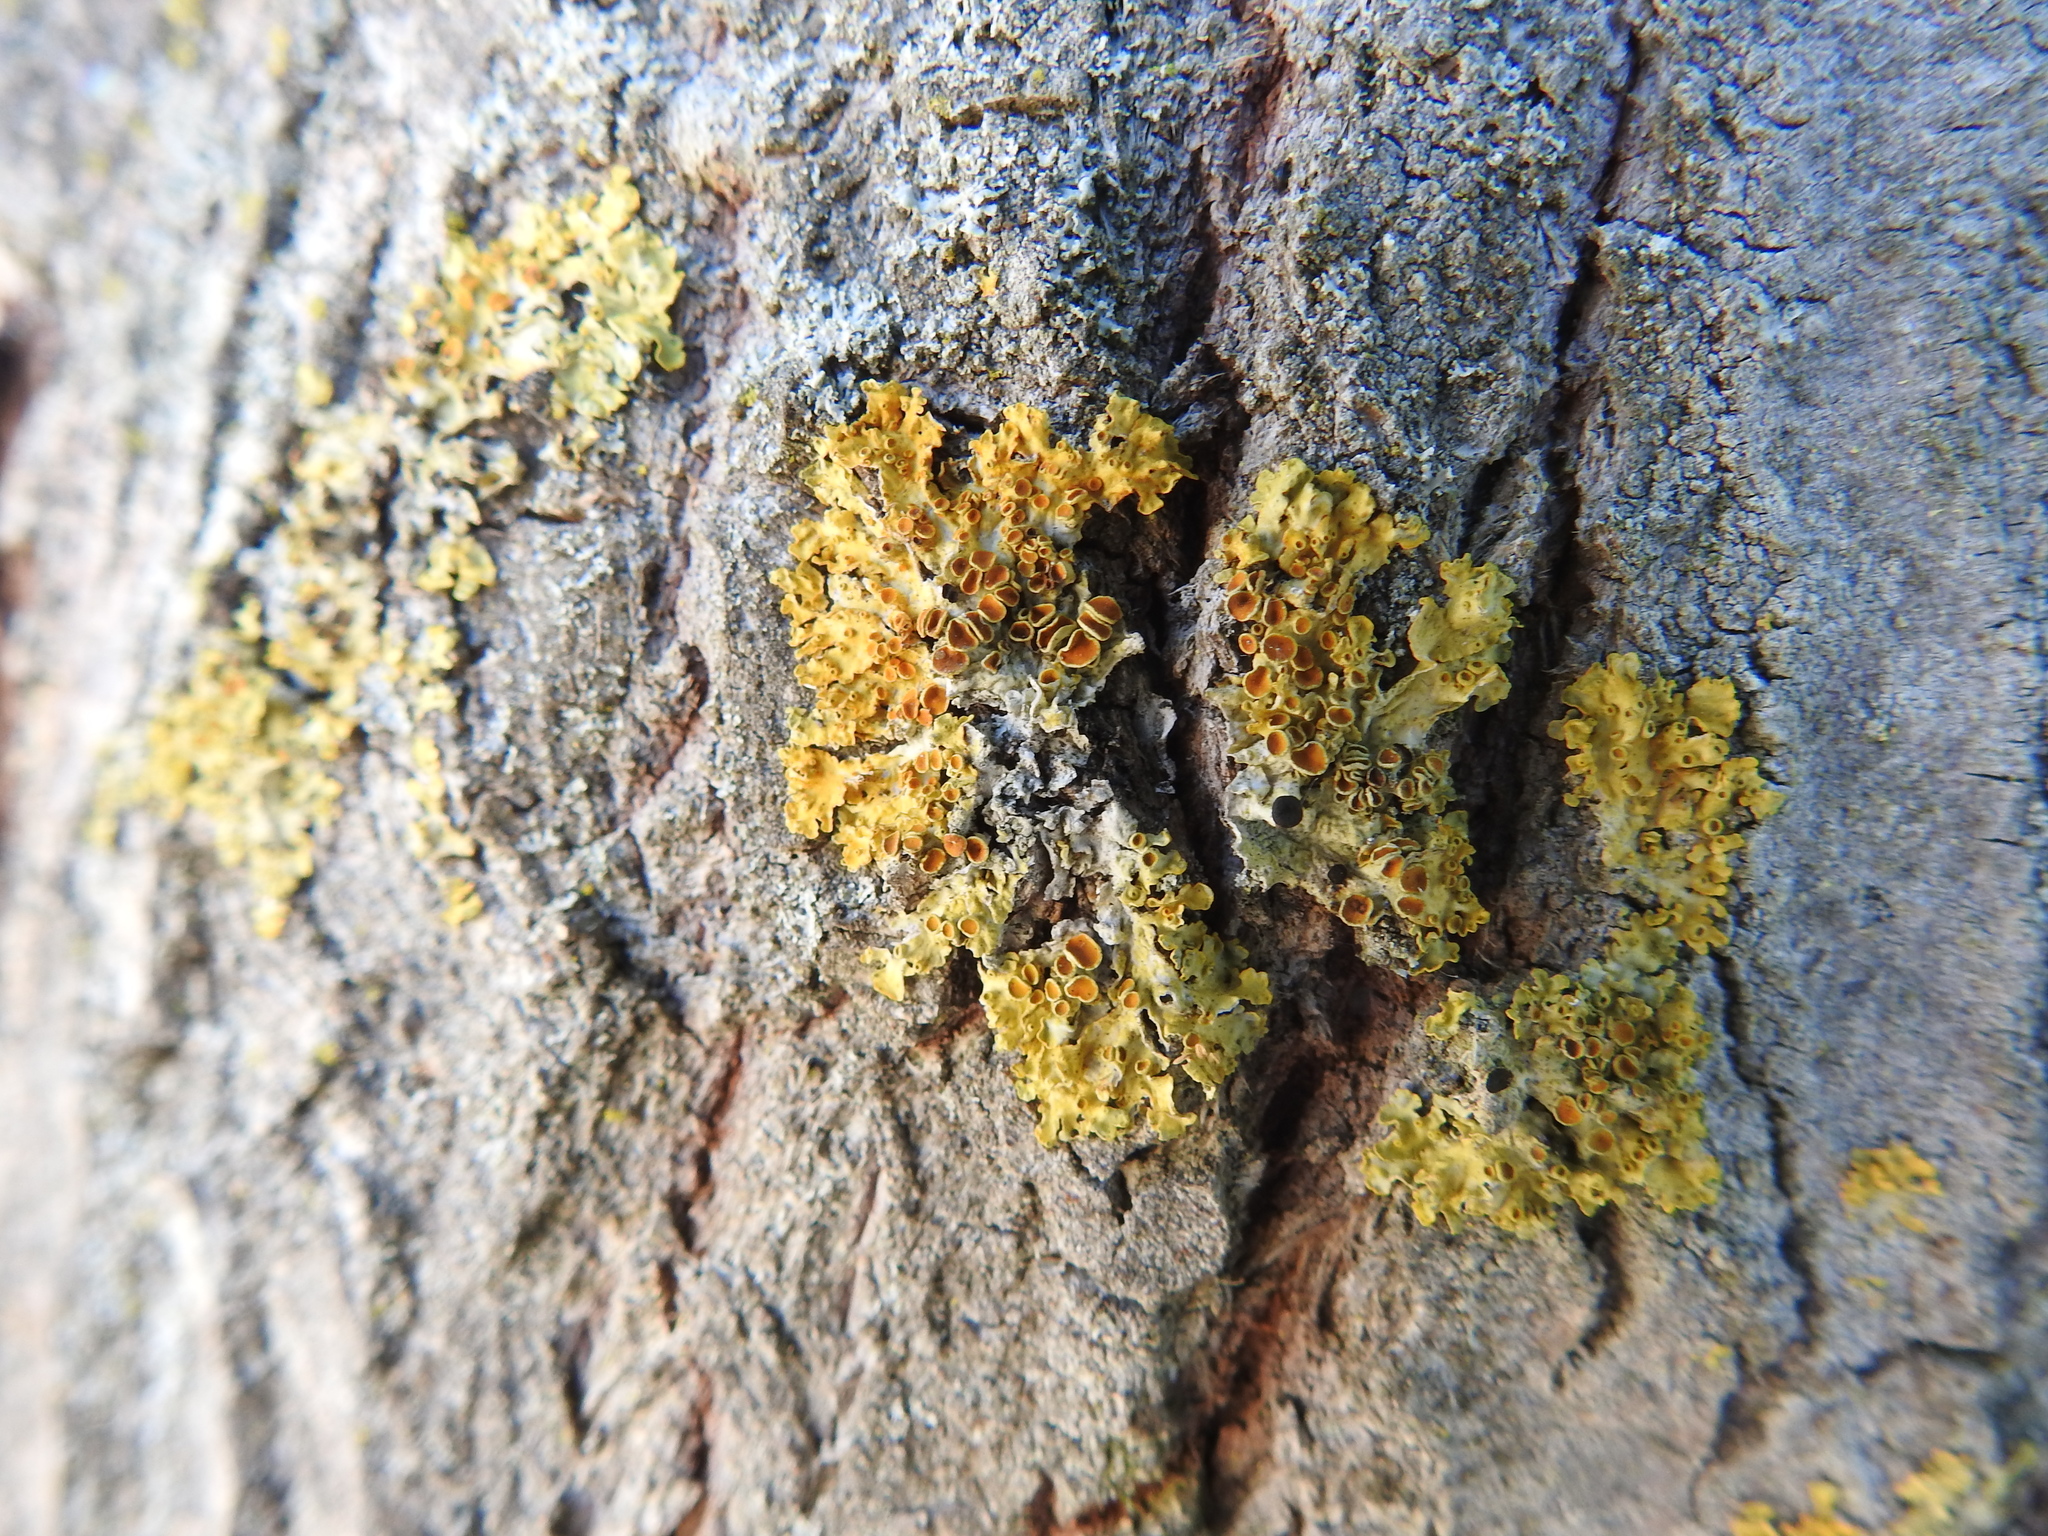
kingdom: Fungi
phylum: Ascomycota
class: Lecanoromycetes
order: Teloschistales
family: Teloschistaceae
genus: Xanthoria
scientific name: Xanthoria parietina
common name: Common orange lichen
